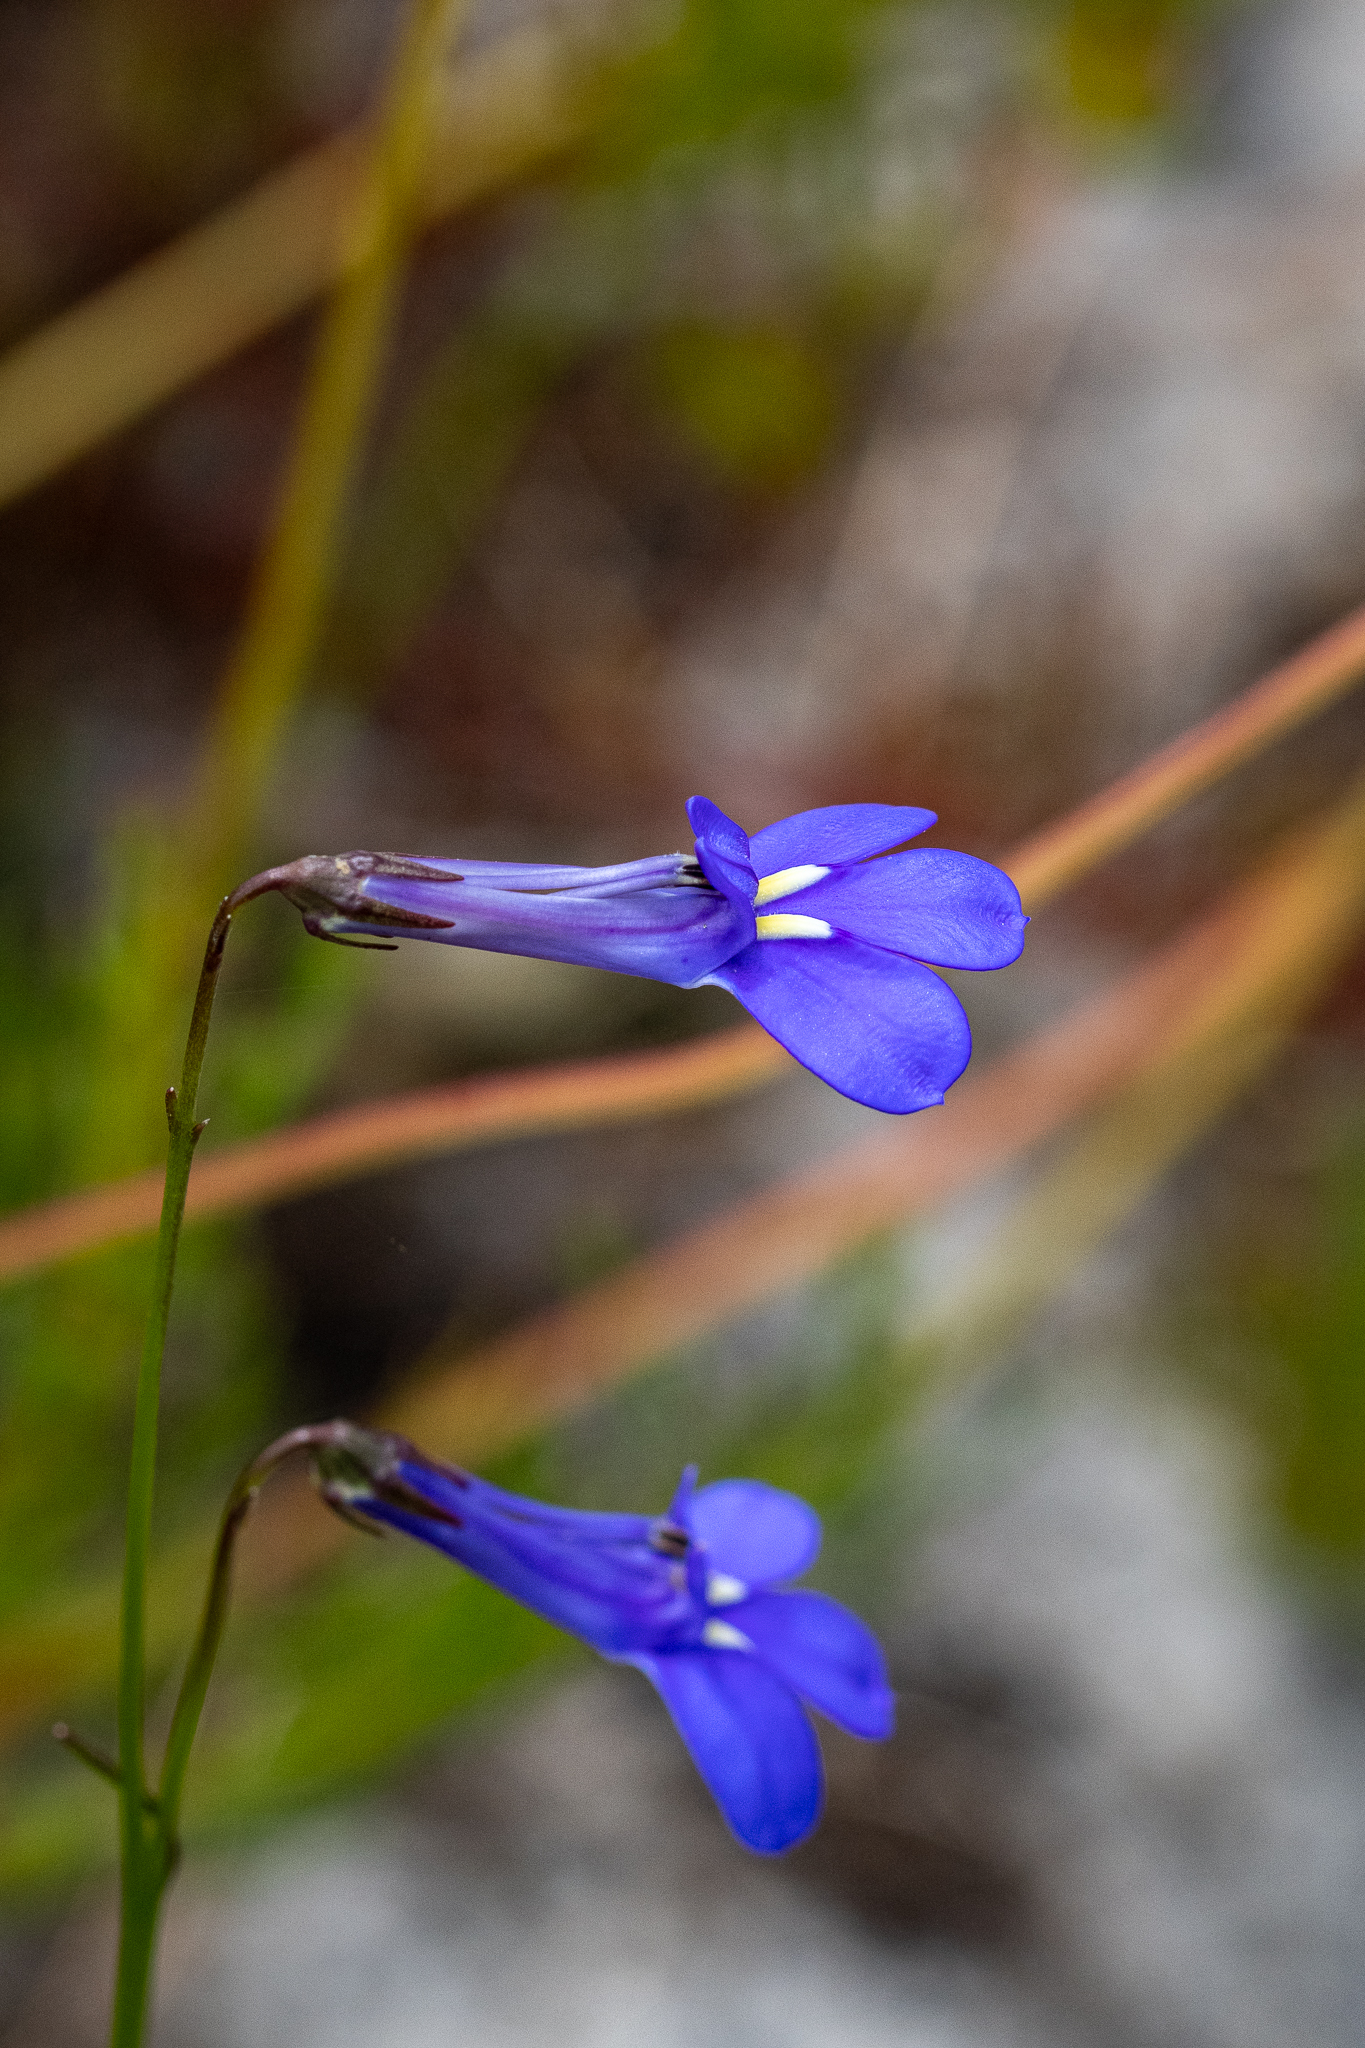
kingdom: Plantae
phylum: Tracheophyta
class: Magnoliopsida
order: Asterales
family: Campanulaceae
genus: Lobelia
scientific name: Lobelia coronopifolia
